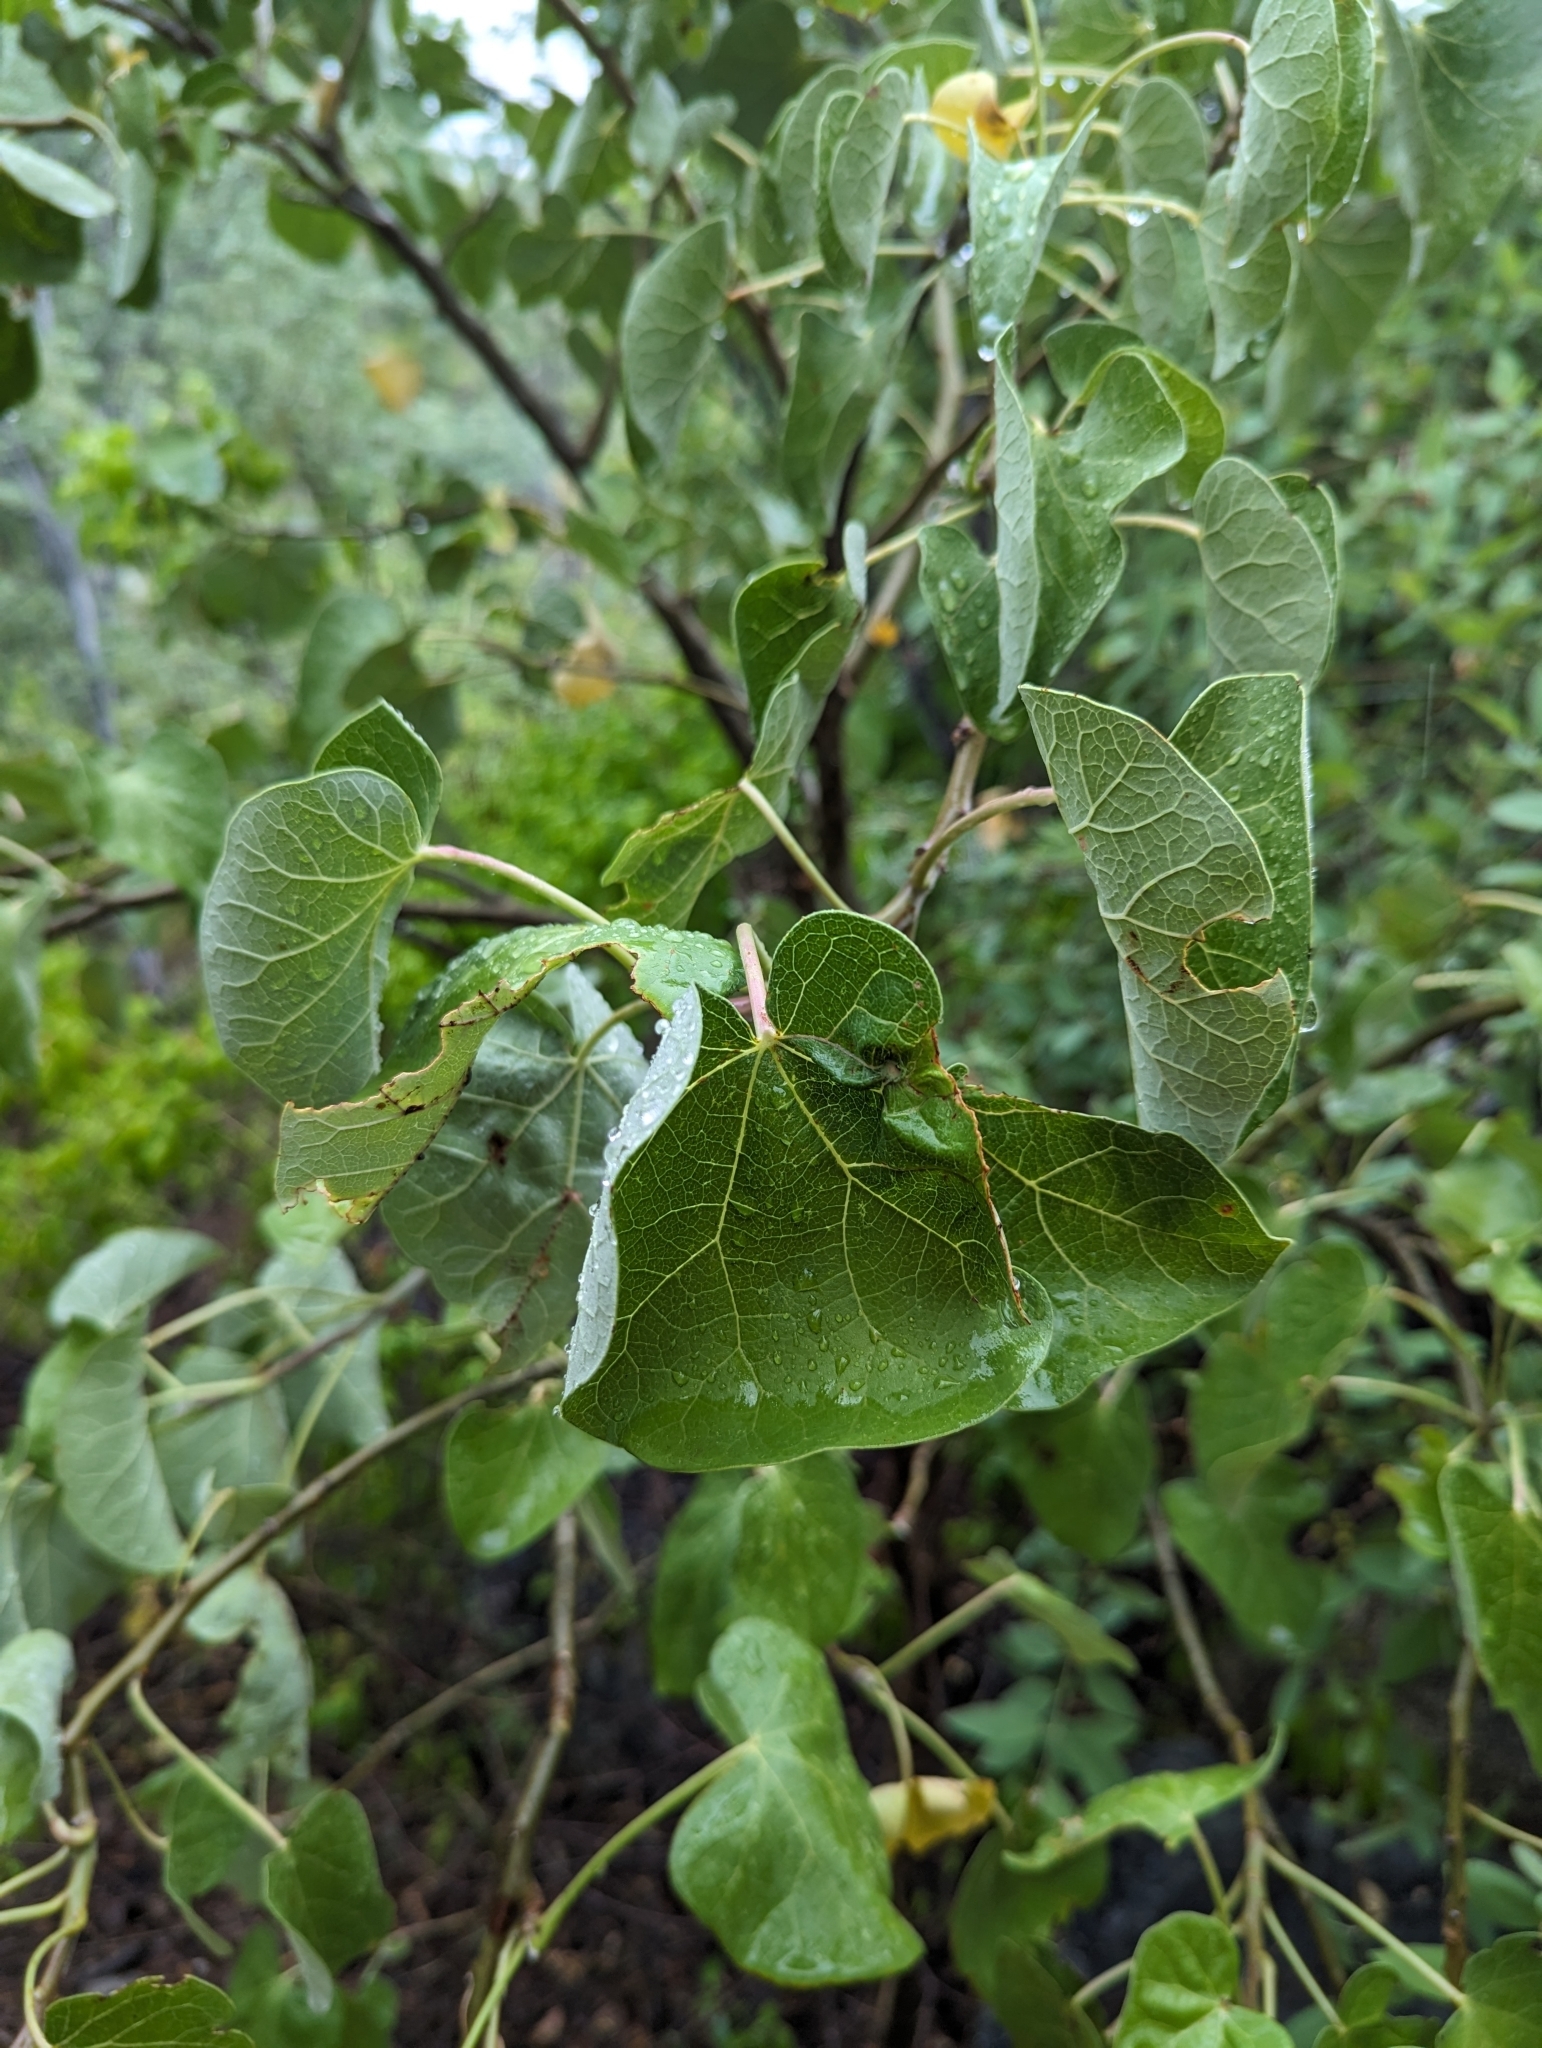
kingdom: Plantae
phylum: Tracheophyta
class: Magnoliopsida
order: Malpighiales
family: Euphorbiaceae
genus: Jatropha
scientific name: Jatropha cinerea
